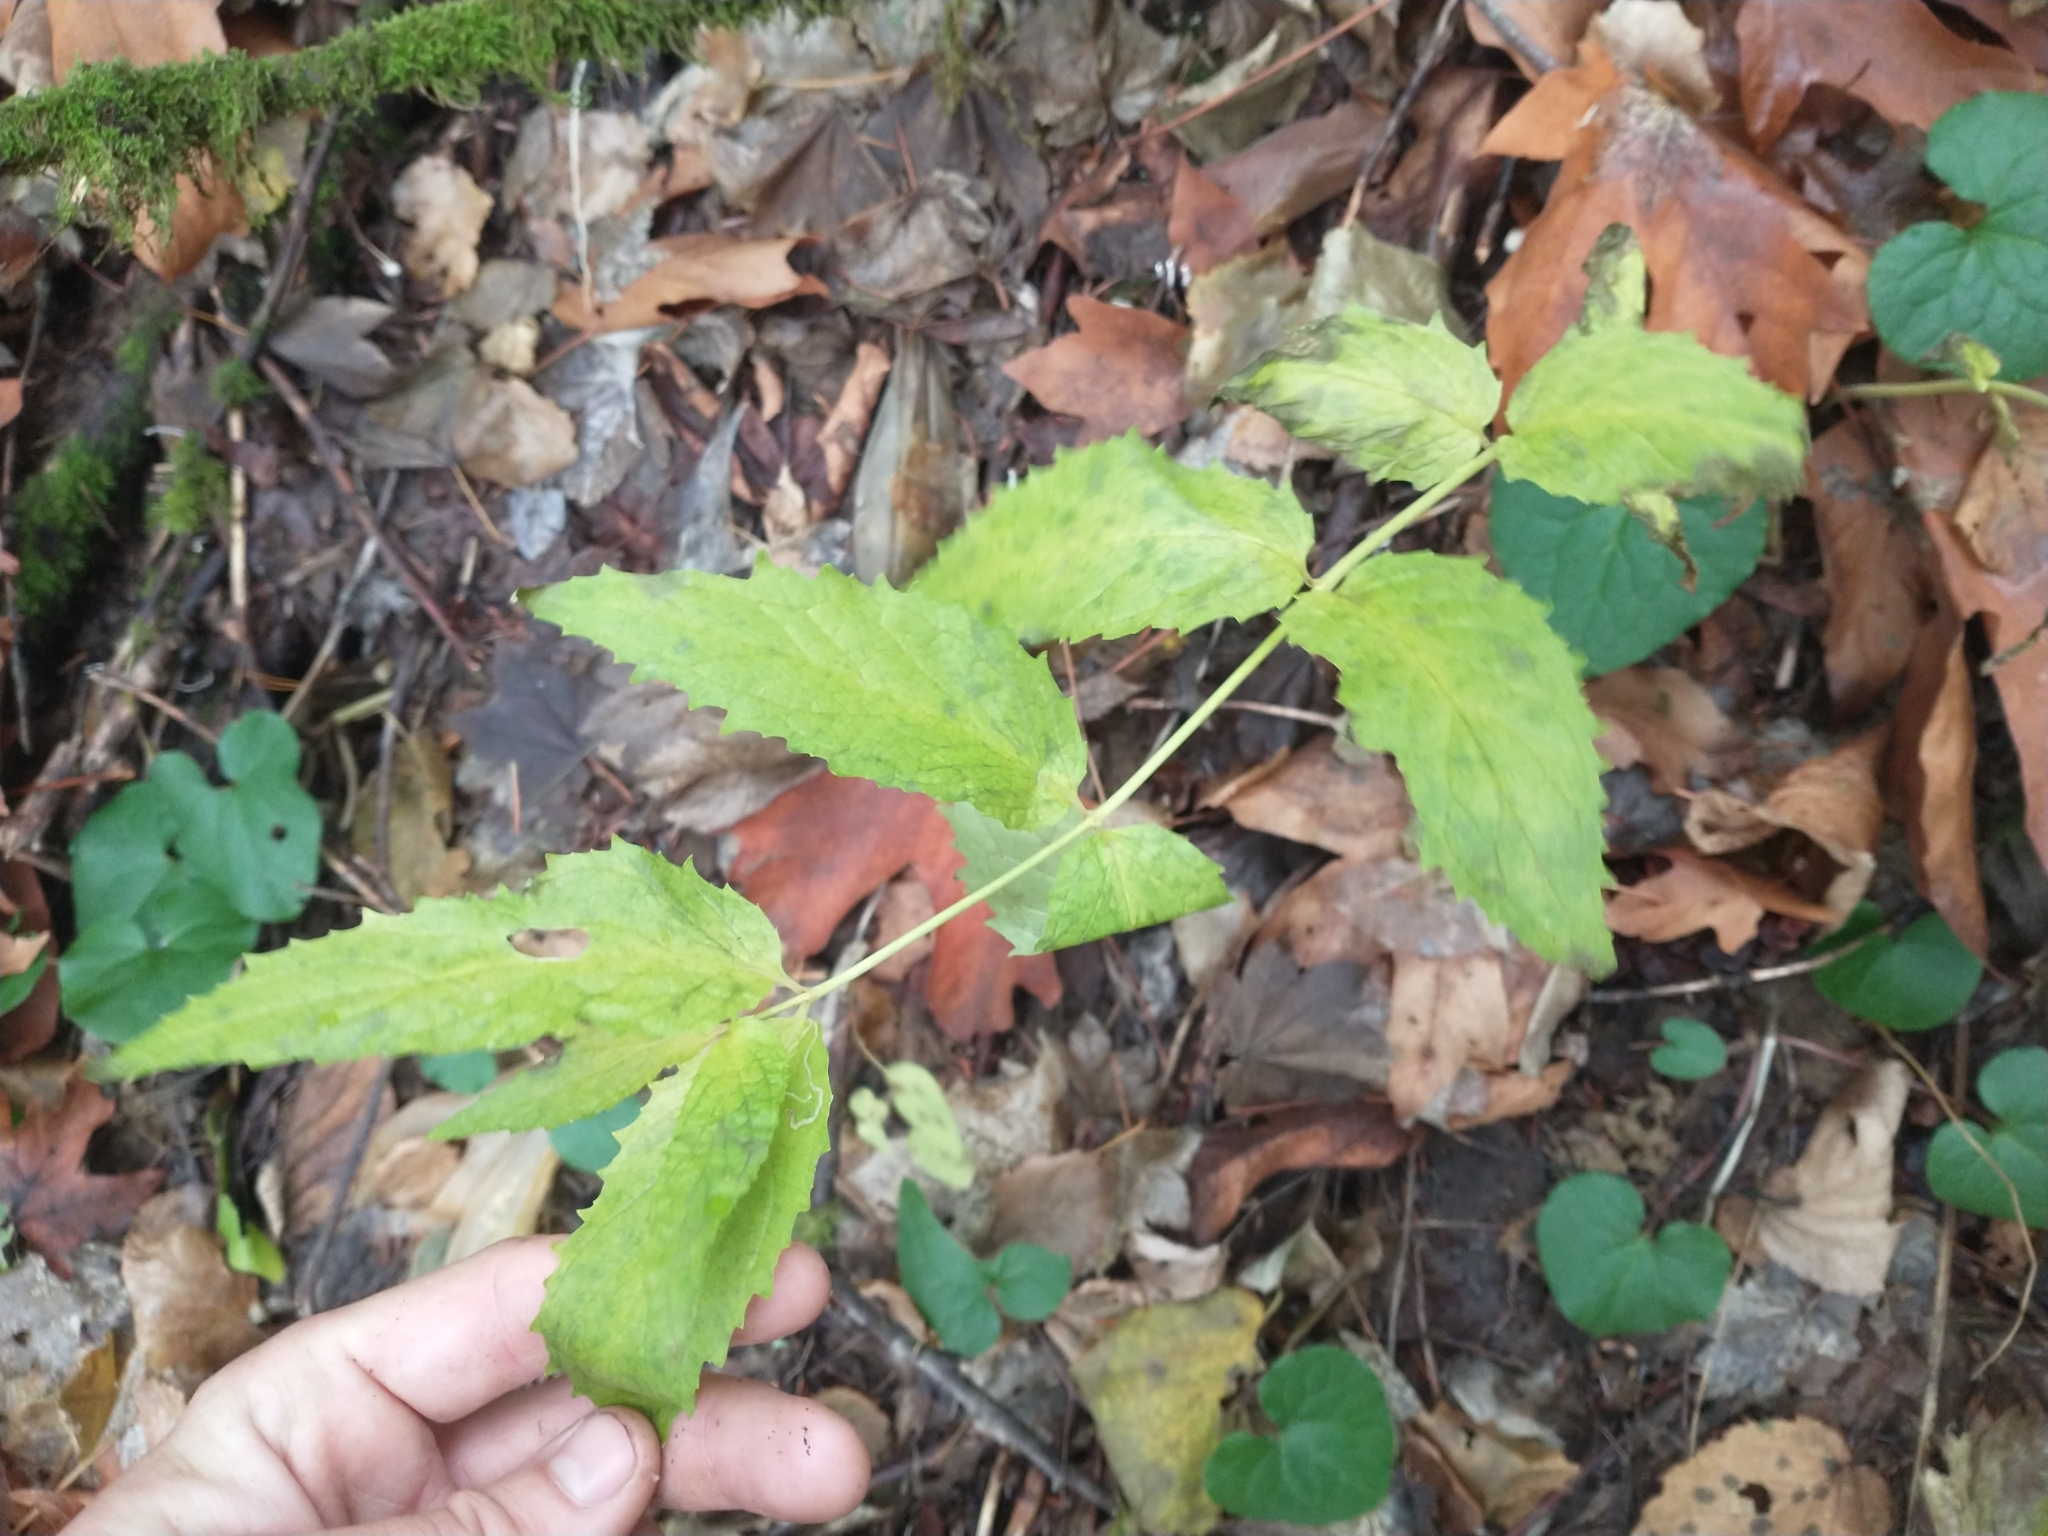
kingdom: Plantae
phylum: Tracheophyta
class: Magnoliopsida
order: Lamiales
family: Plantaginaceae
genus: Nothochelone
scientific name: Nothochelone nemorosa
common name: Woodland beardtongue
